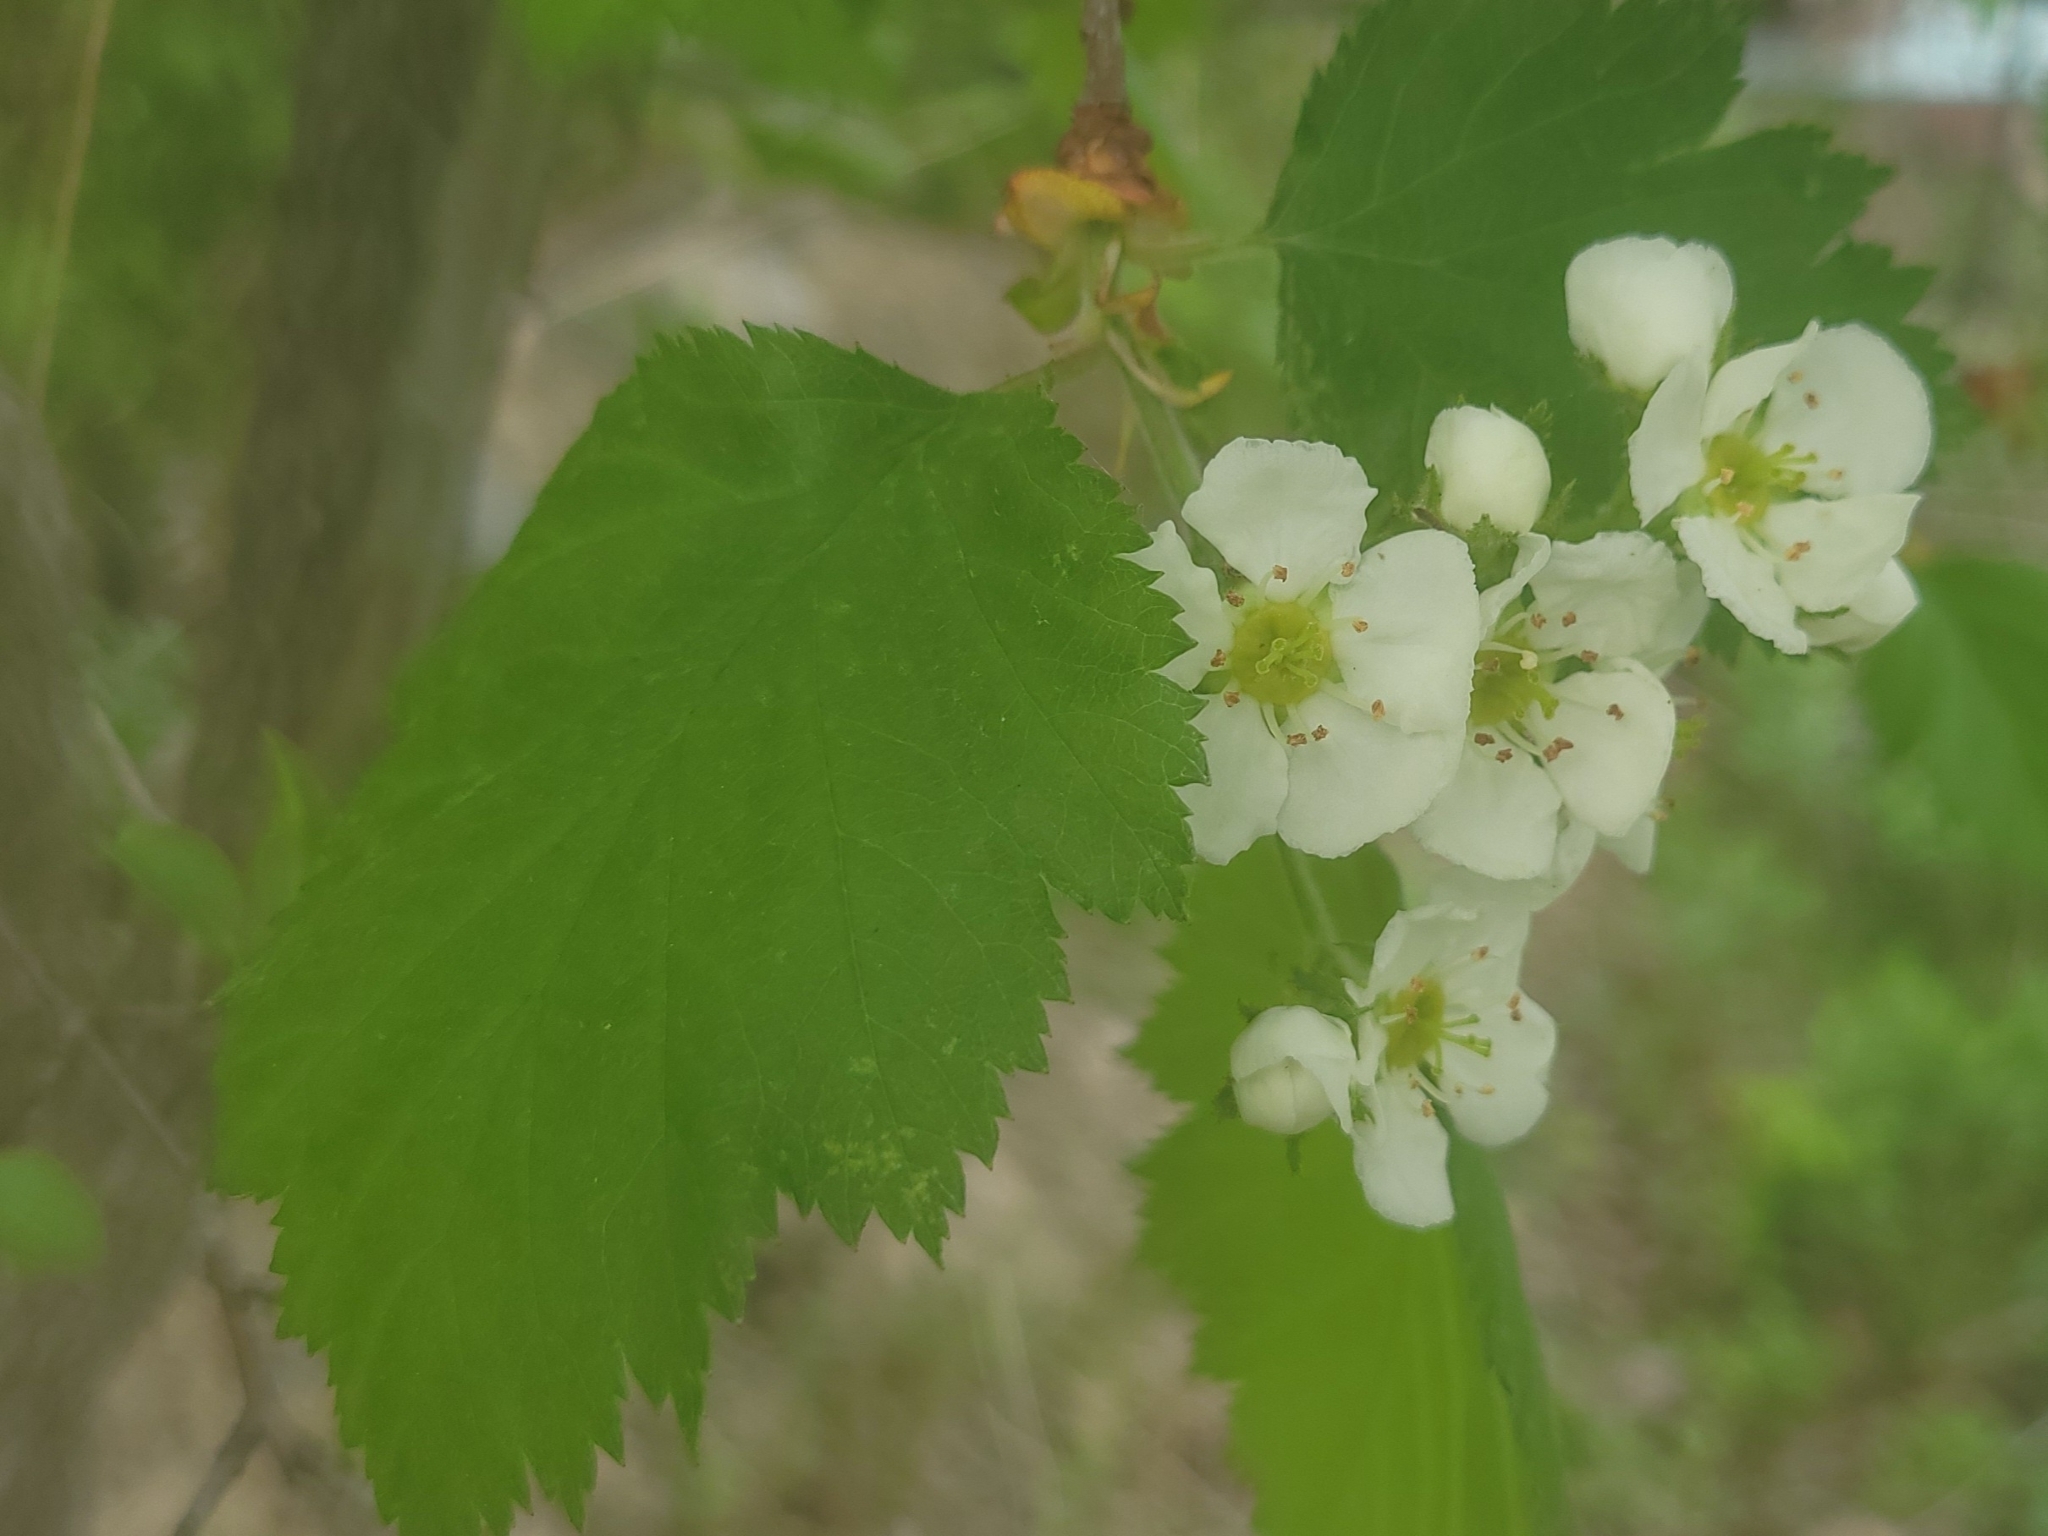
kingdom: Plantae
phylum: Tracheophyta
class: Magnoliopsida
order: Rosales
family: Rosaceae
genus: Crataegus
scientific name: Crataegus submollis
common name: Hairy cockspurthorn
